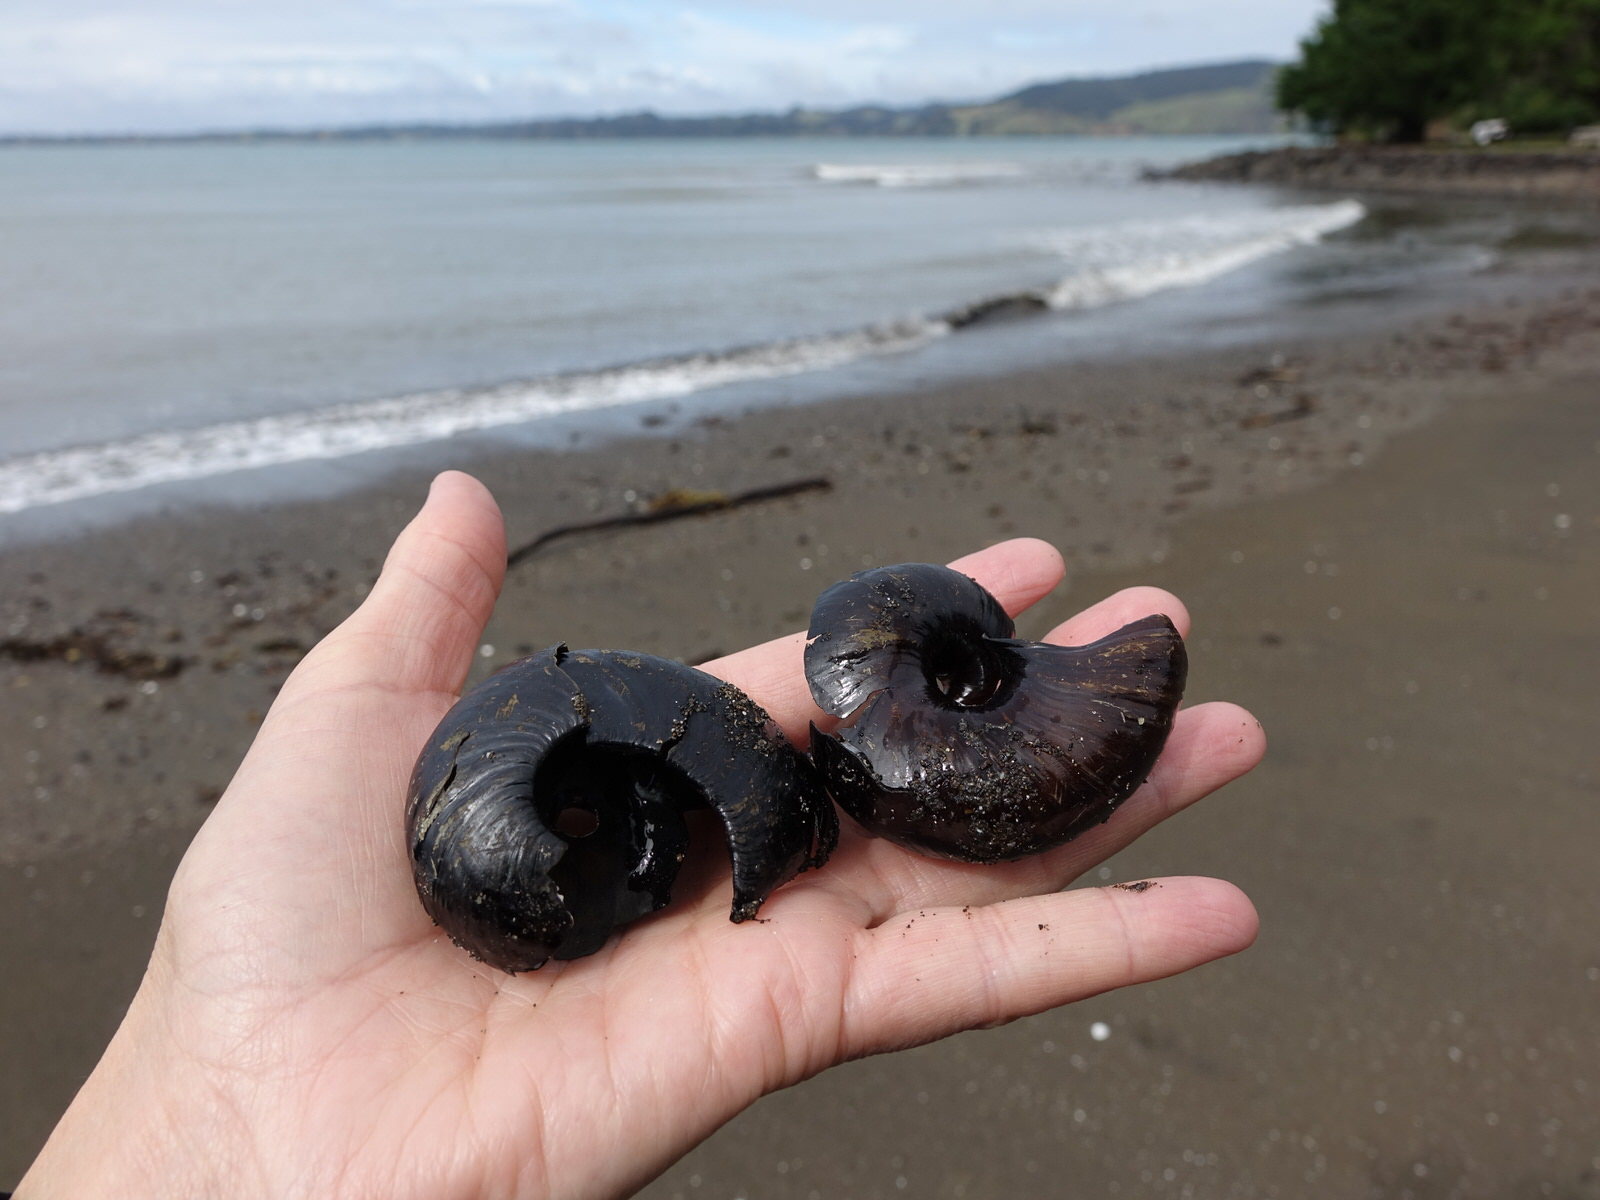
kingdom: Animalia
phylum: Mollusca
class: Gastropoda
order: Stylommatophora
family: Rhytididae
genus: Paryphanta
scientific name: Paryphanta busbyi
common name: Kauri snail
